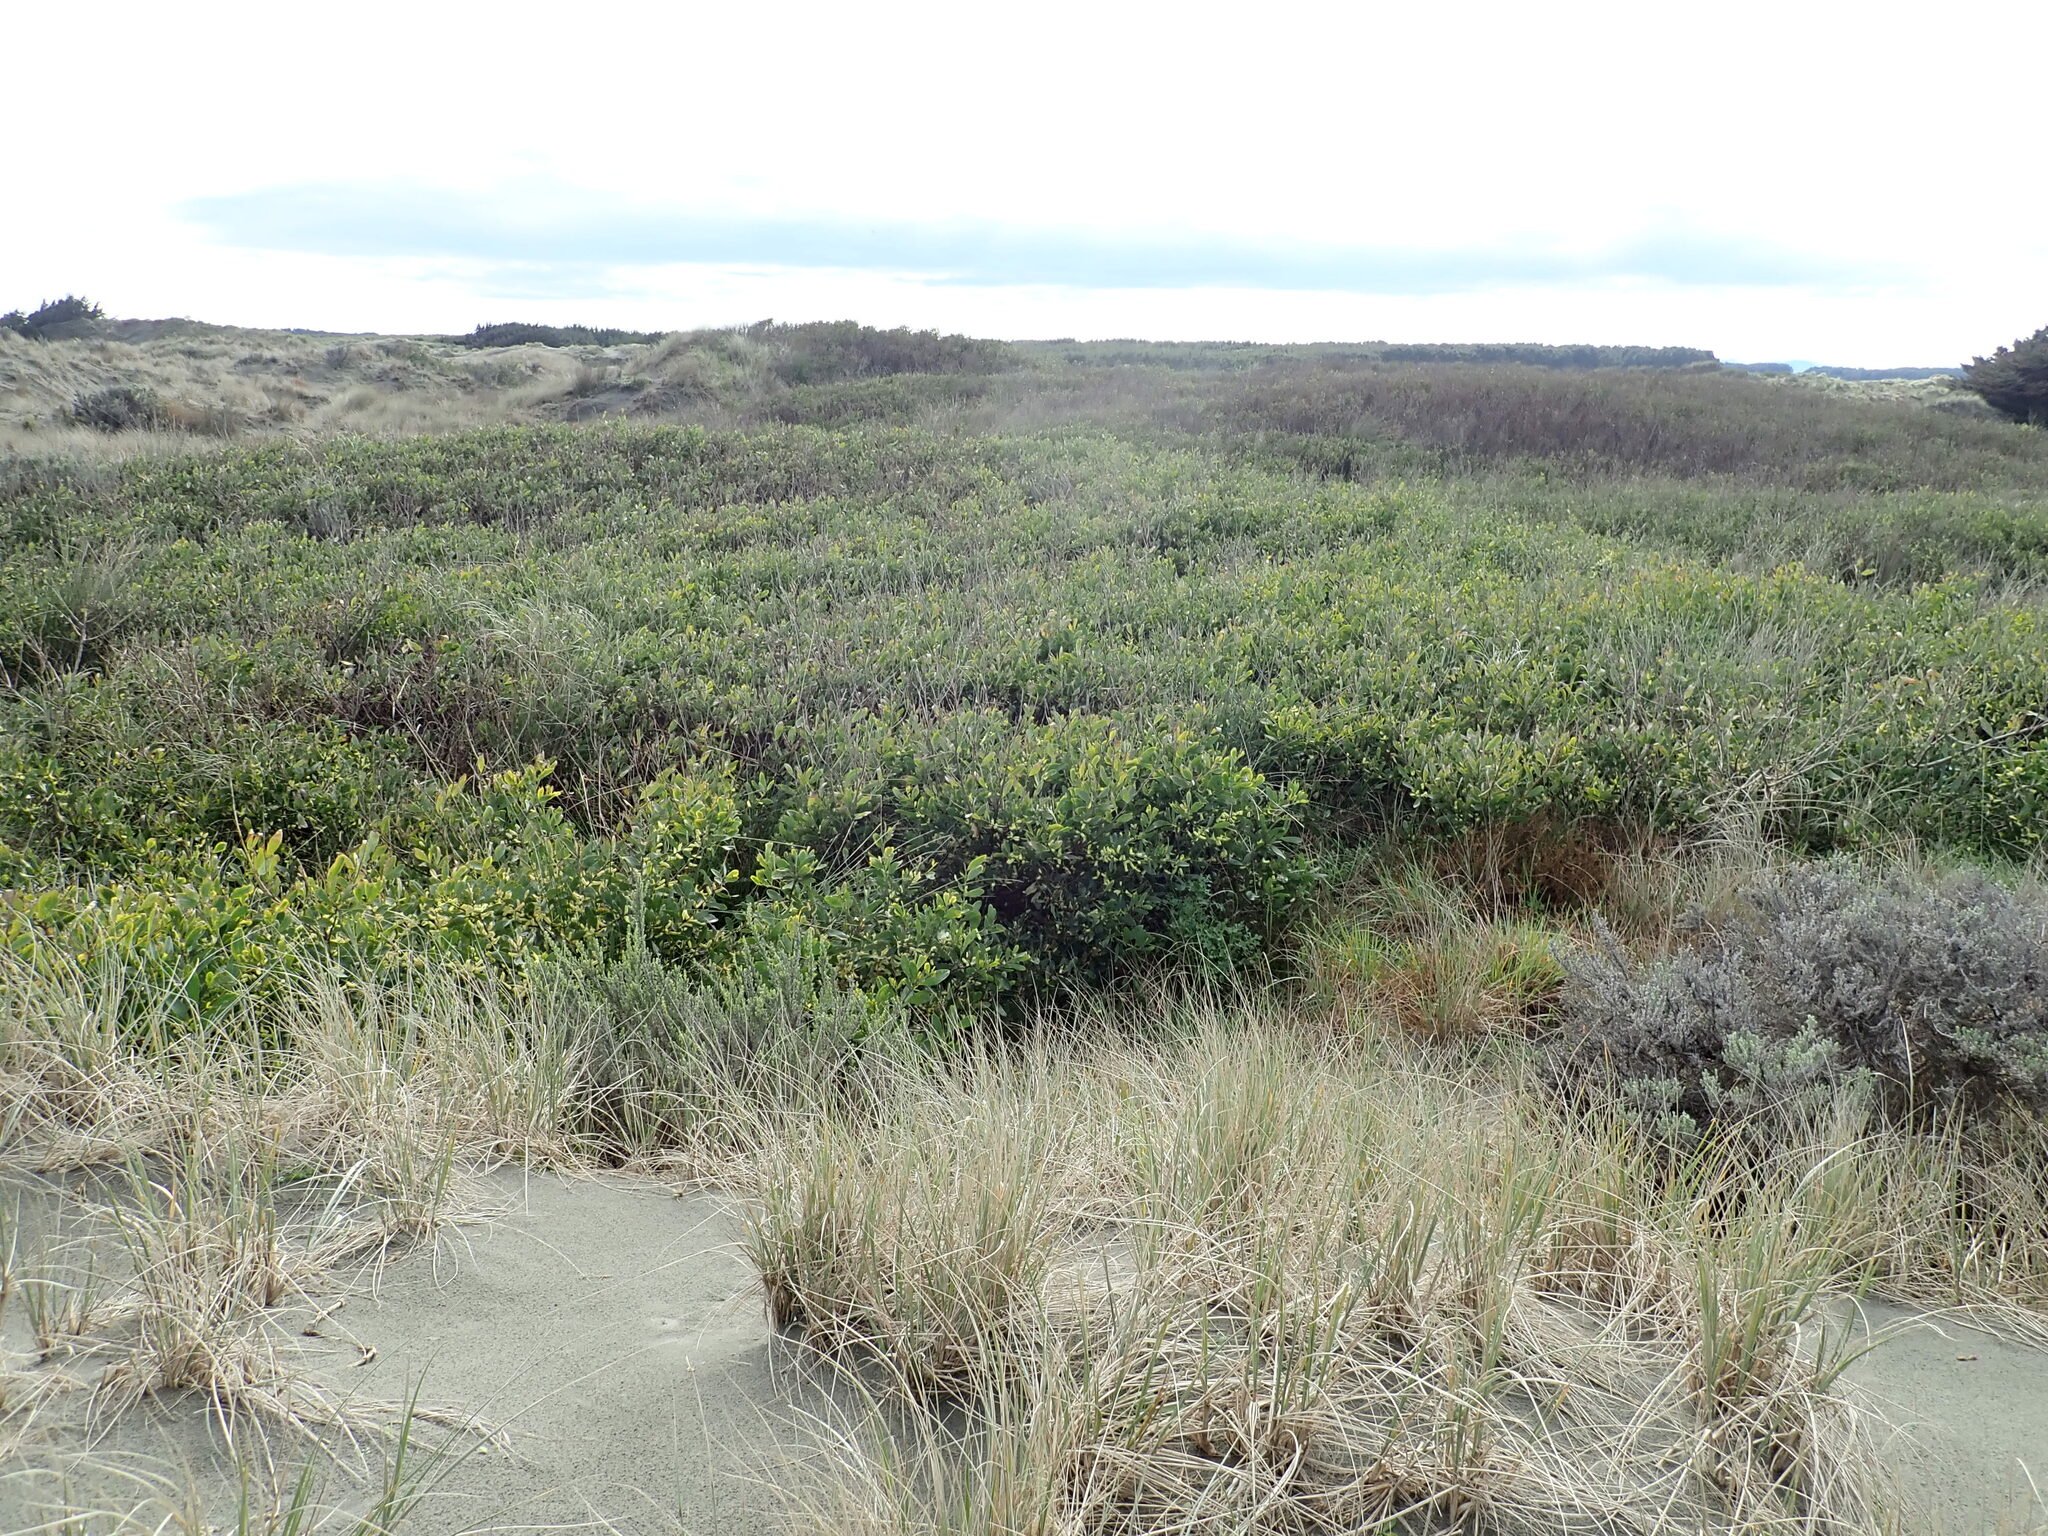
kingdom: Plantae
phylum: Tracheophyta
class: Magnoliopsida
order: Fabales
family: Fabaceae
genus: Acacia
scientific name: Acacia longifolia
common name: Sydney golden wattle
